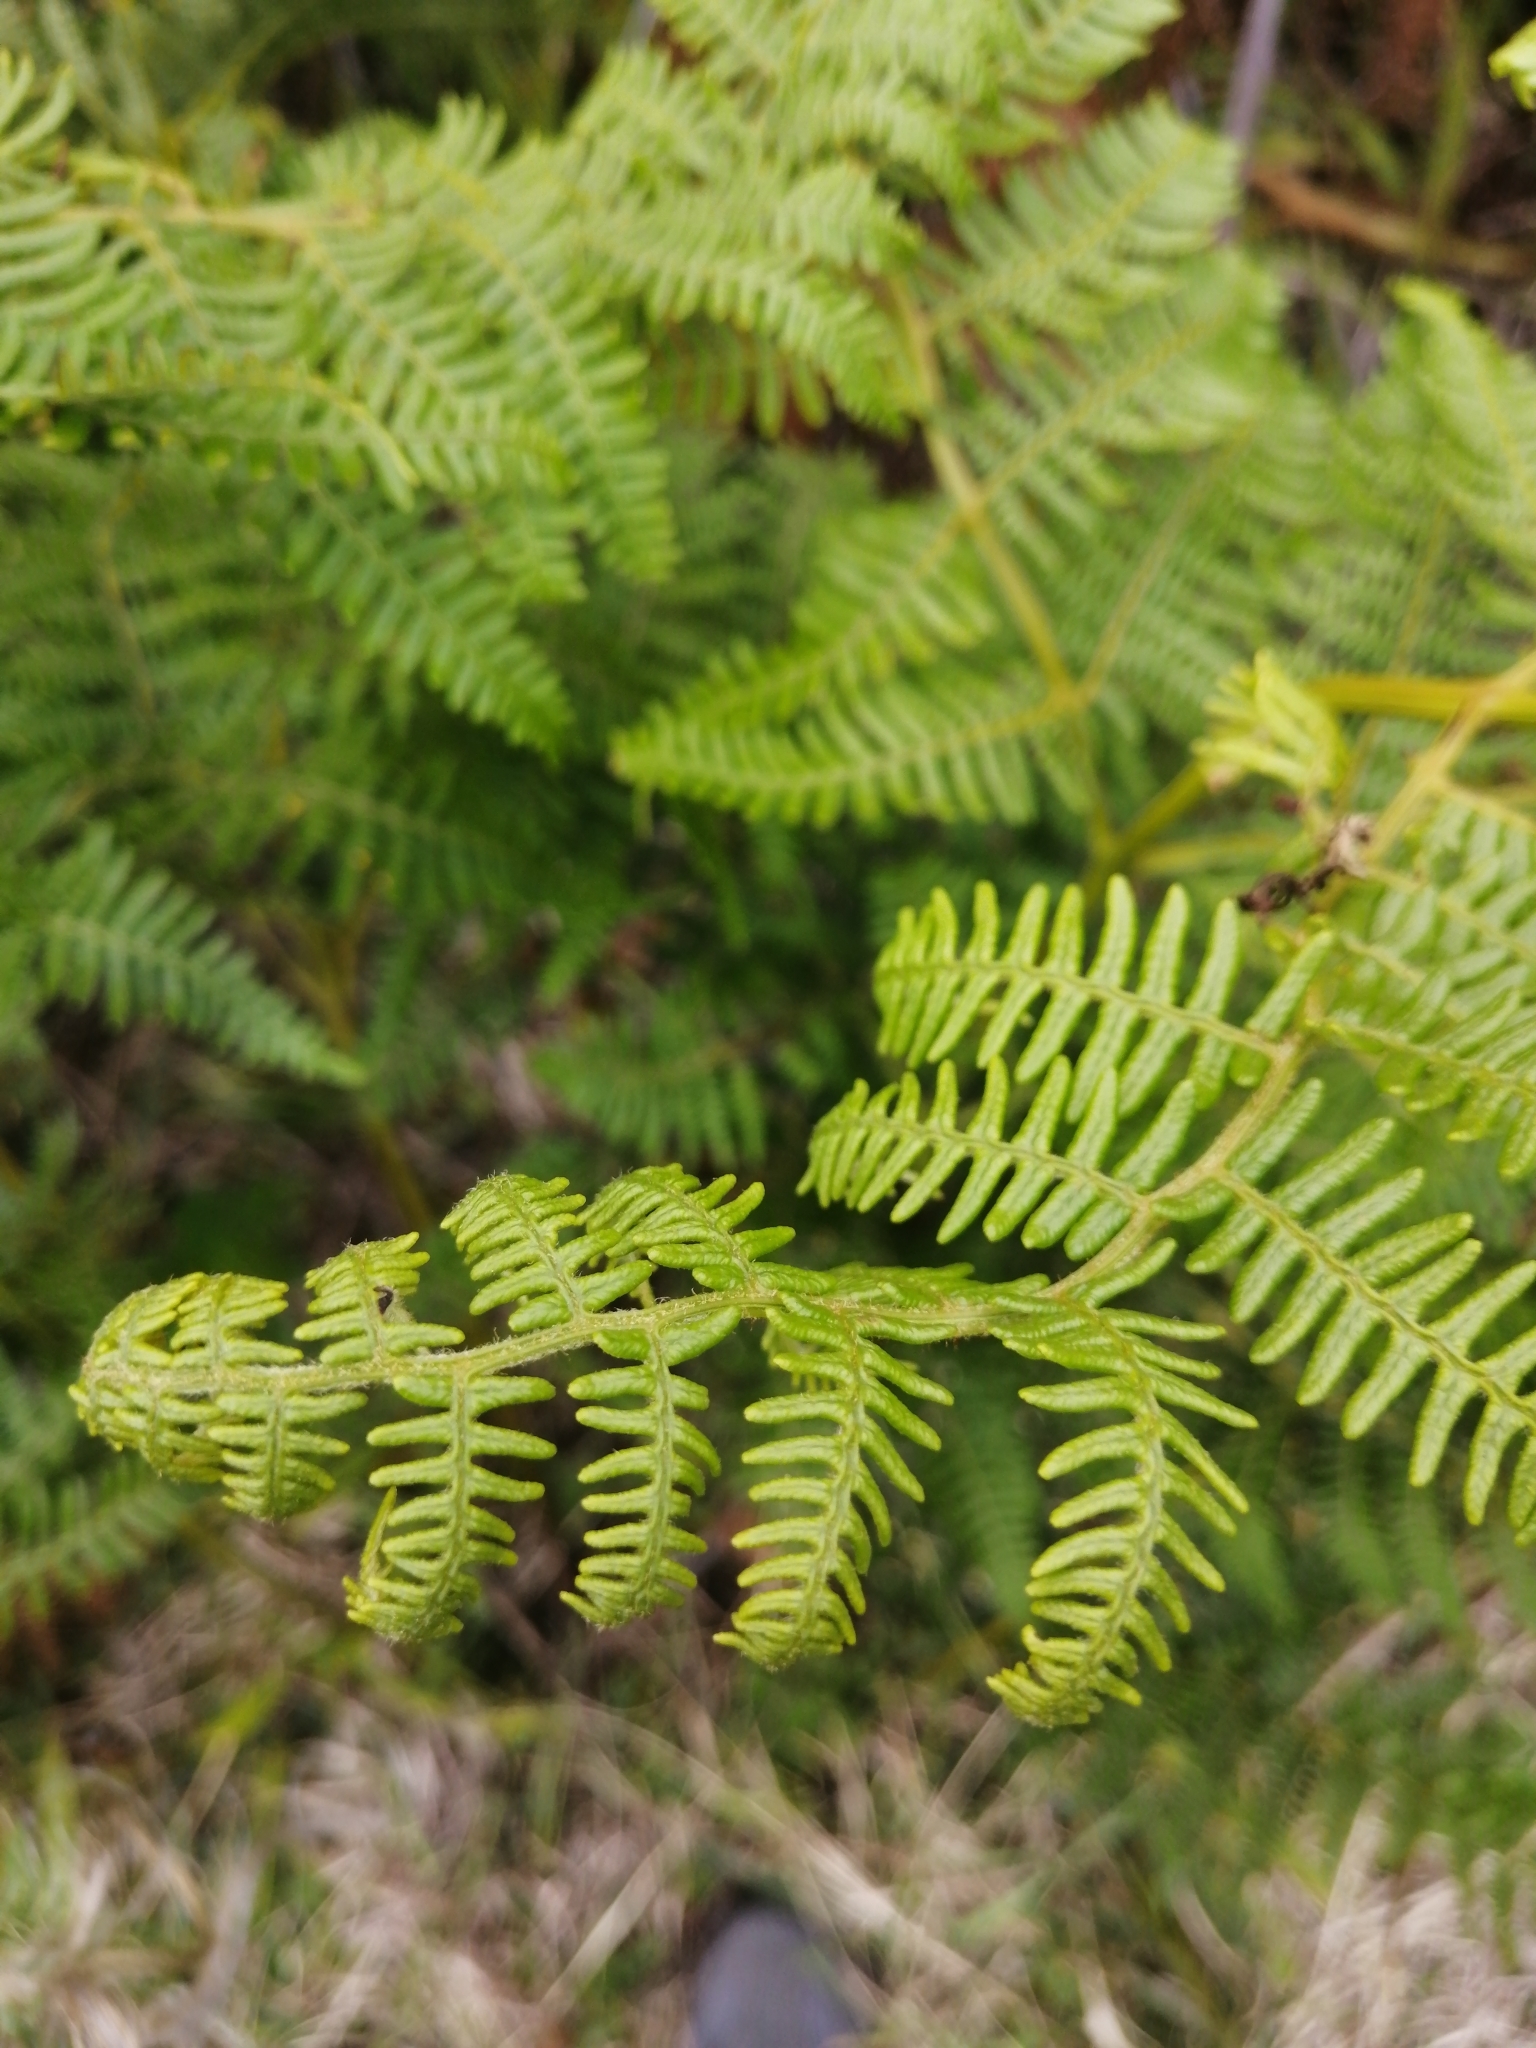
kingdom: Plantae
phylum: Tracheophyta
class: Polypodiopsida
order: Polypodiales
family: Dennstaedtiaceae
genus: Pteridium
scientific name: Pteridium aquilinum
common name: Bracken
